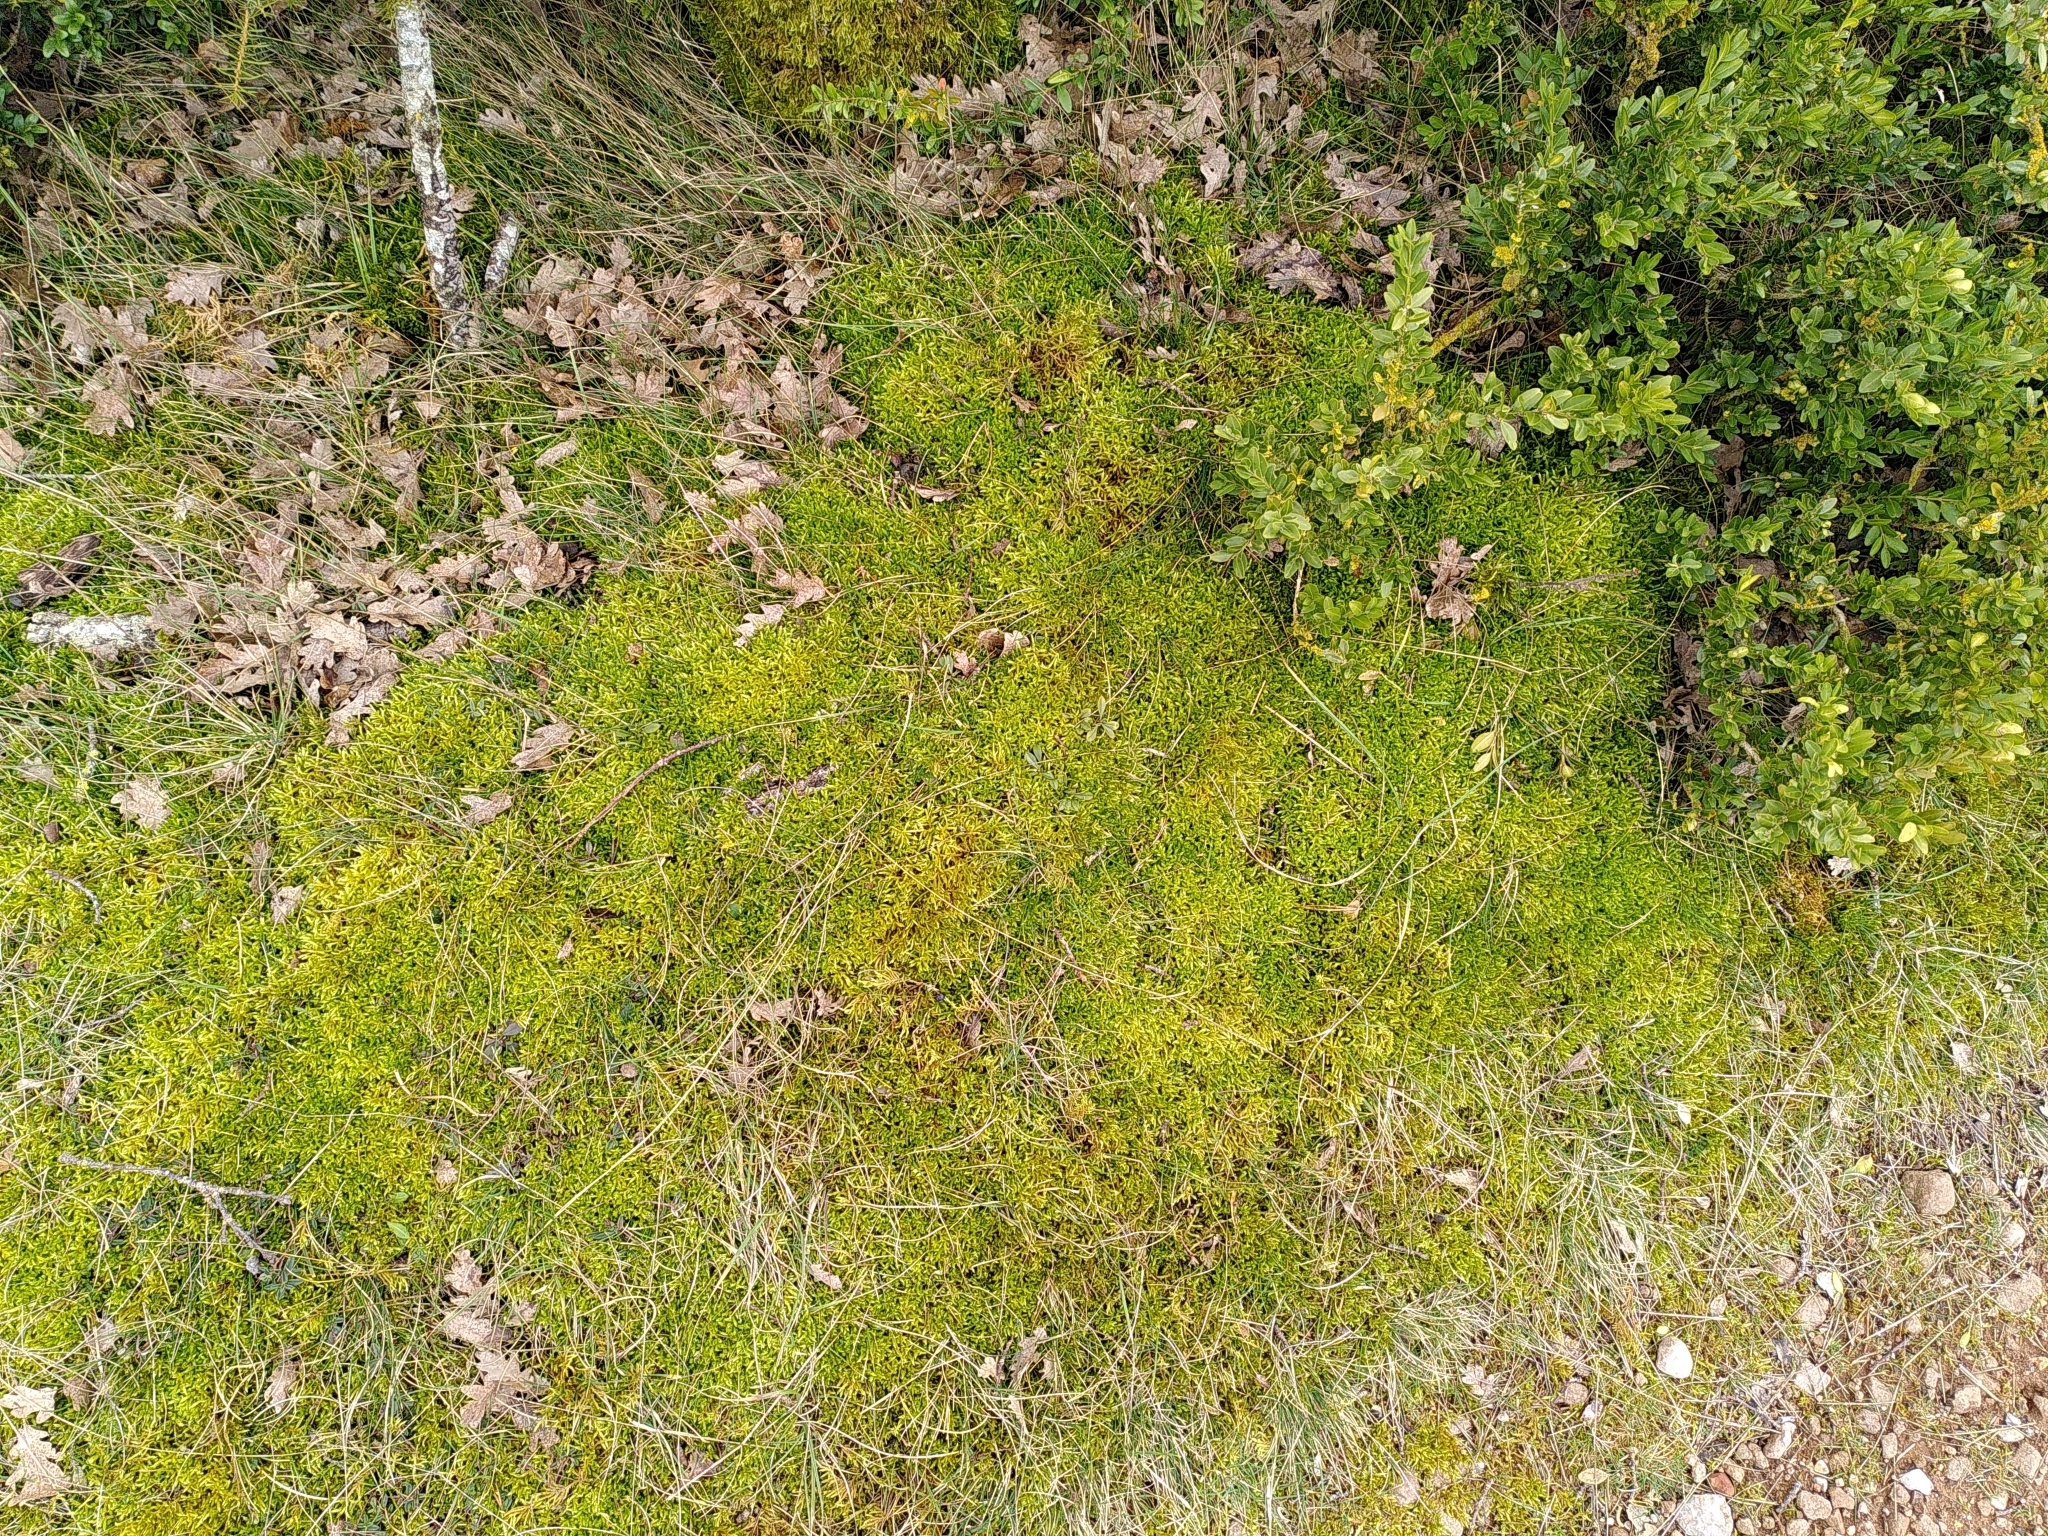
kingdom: Plantae
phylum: Bryophyta
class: Bryopsida
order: Hypnales
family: Brachytheciaceae
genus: Homalothecium
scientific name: Homalothecium lutescens
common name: Yellow feather-moss
